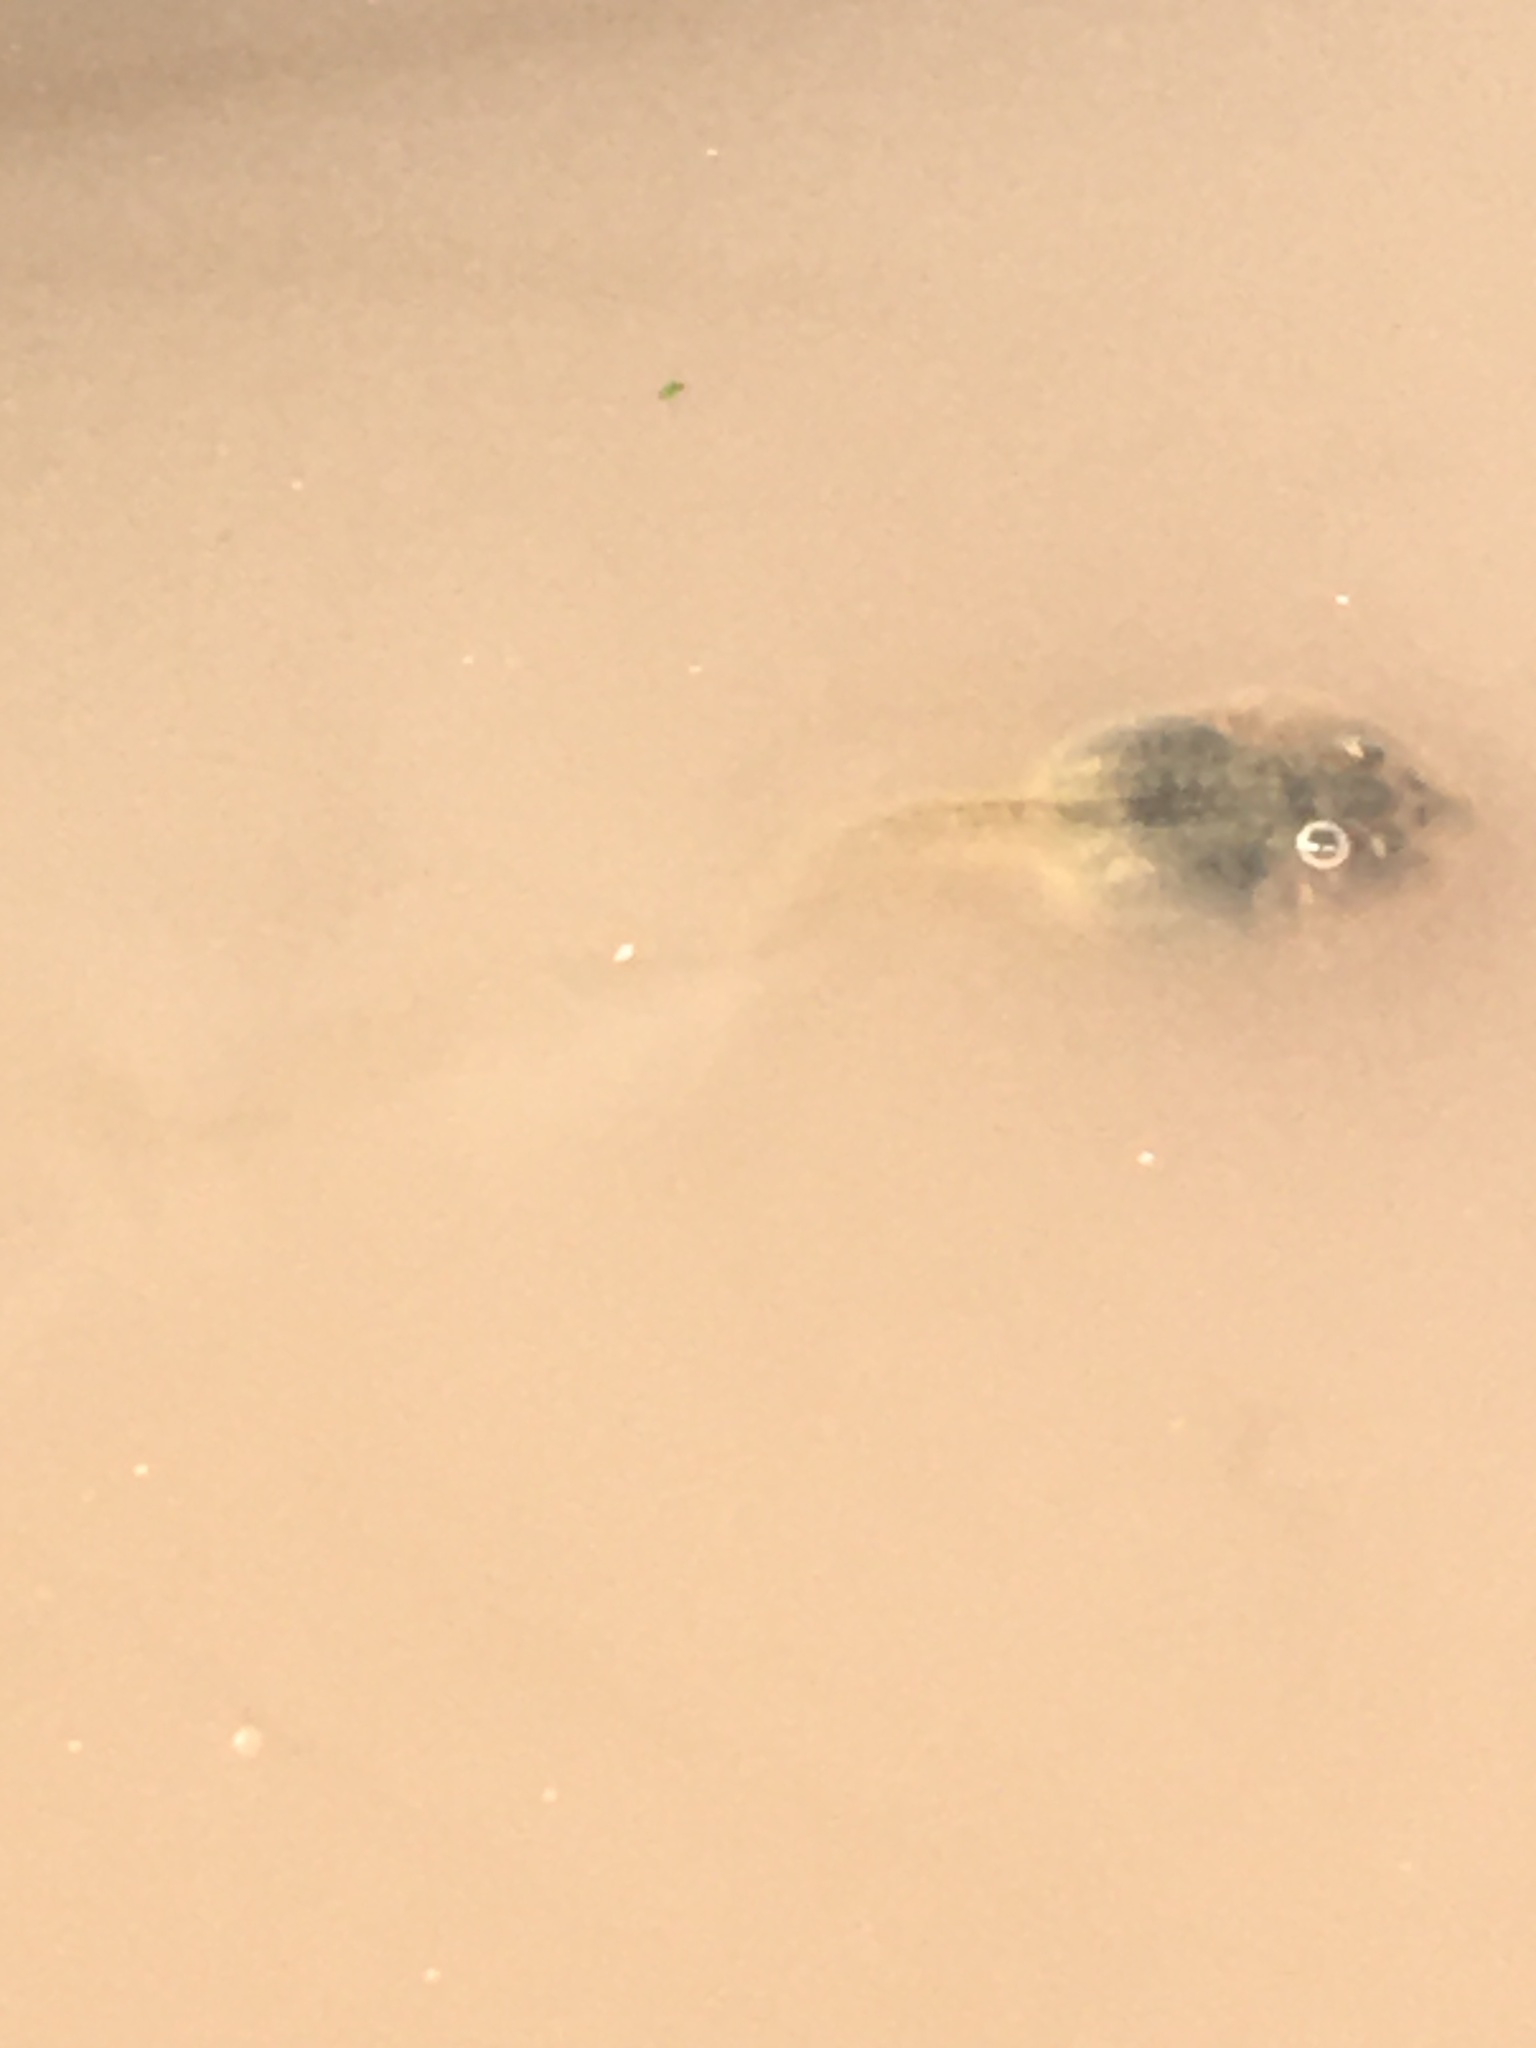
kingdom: Animalia
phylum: Chordata
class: Amphibia
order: Anura
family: Scaphiopodidae
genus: Spea
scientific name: Spea hammondii
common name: Western spadefoot toad
